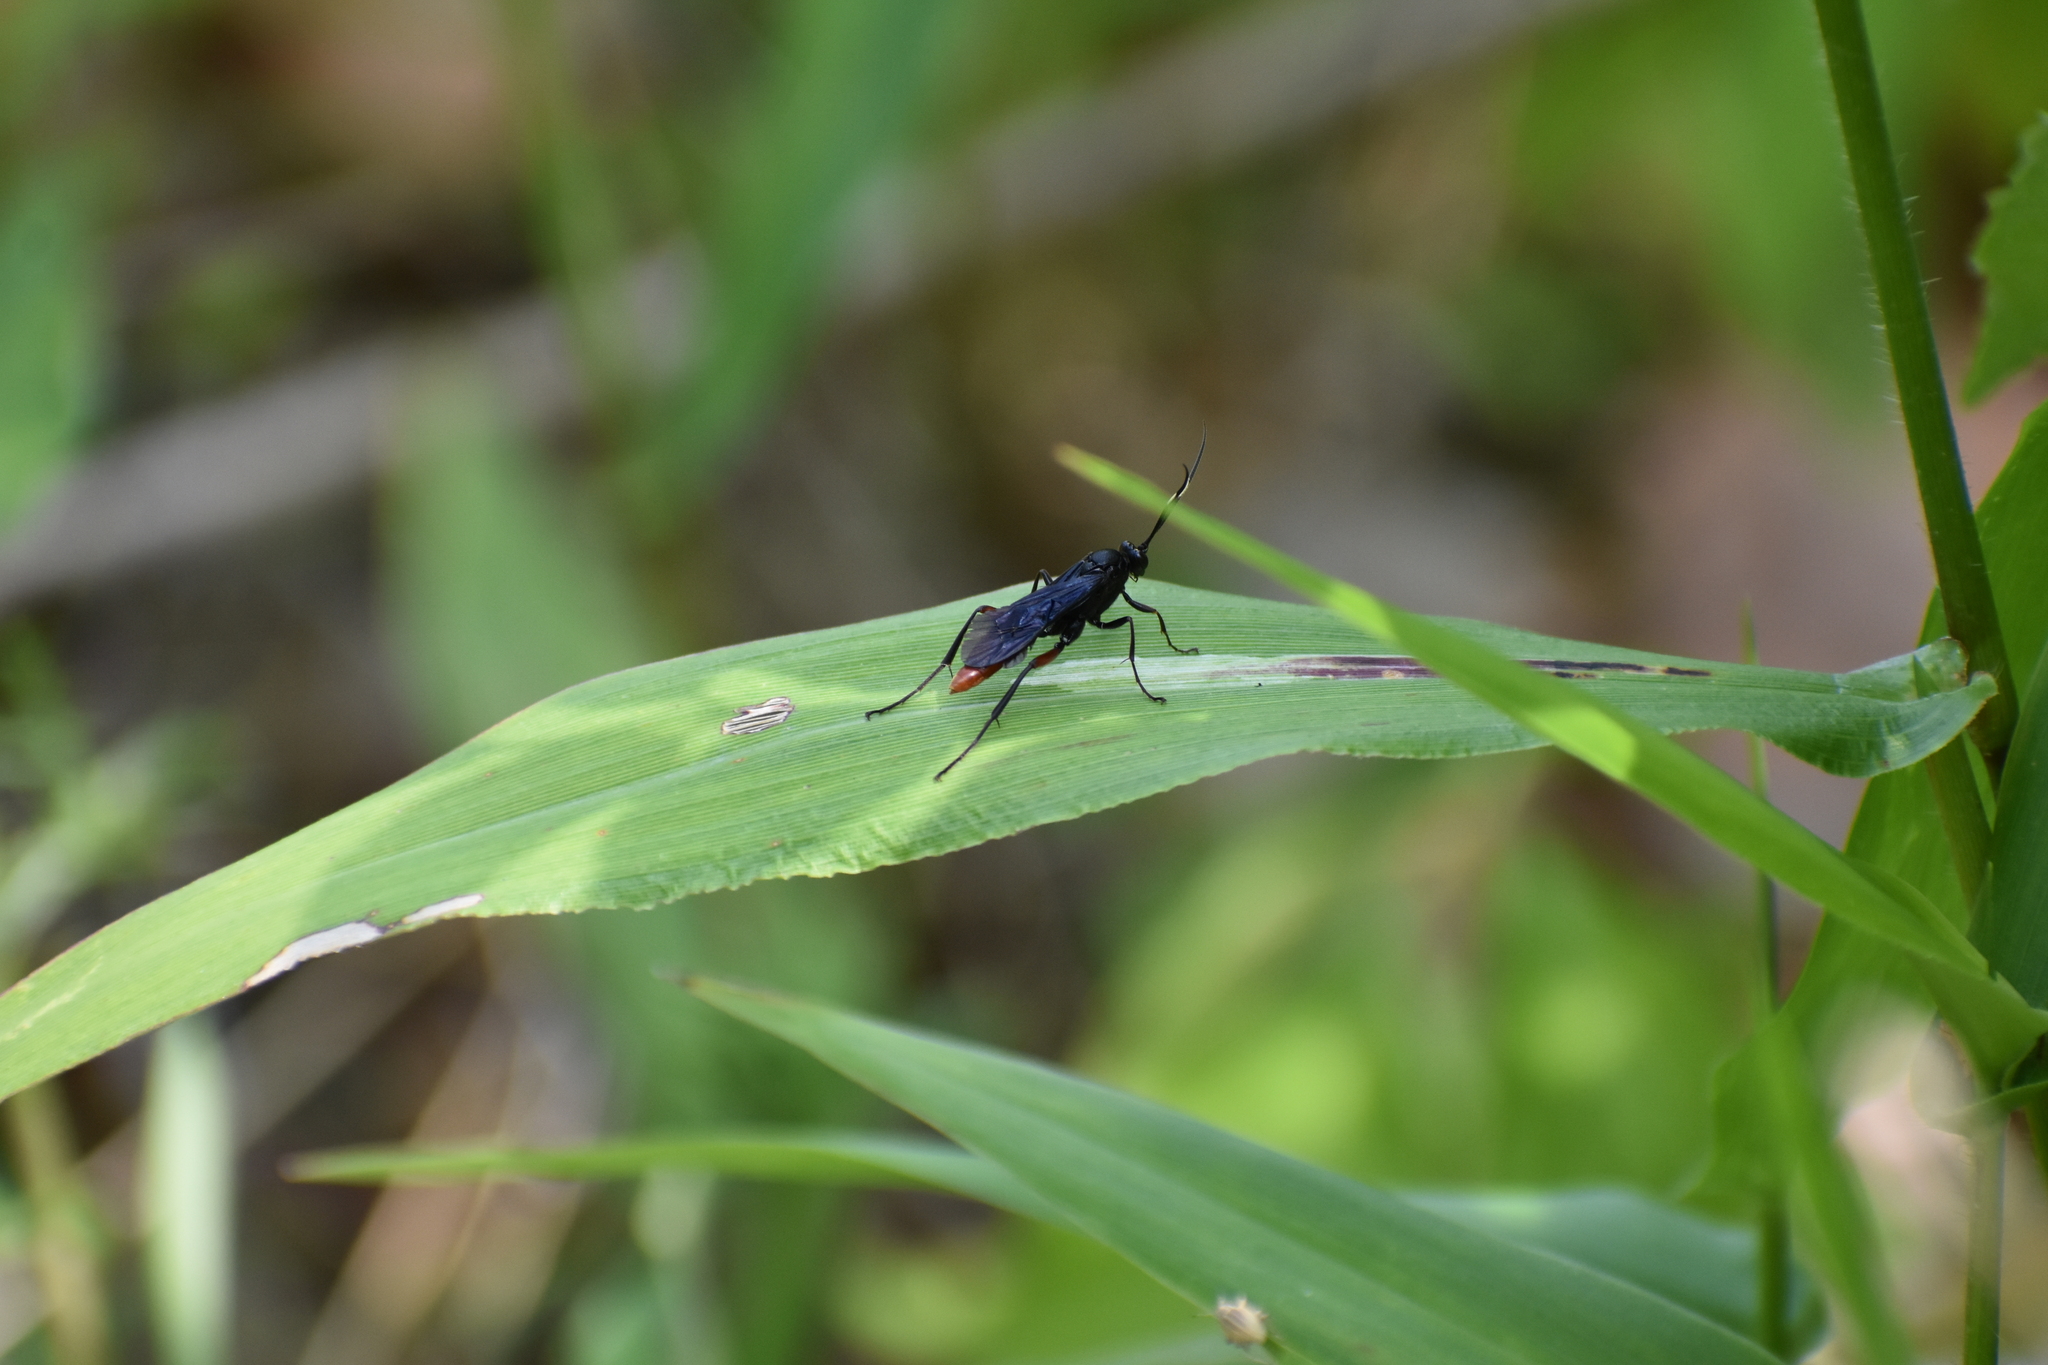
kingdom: Animalia
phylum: Arthropoda
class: Insecta
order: Hymenoptera
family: Ichneumonidae
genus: Limonethe
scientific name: Limonethe maurator
